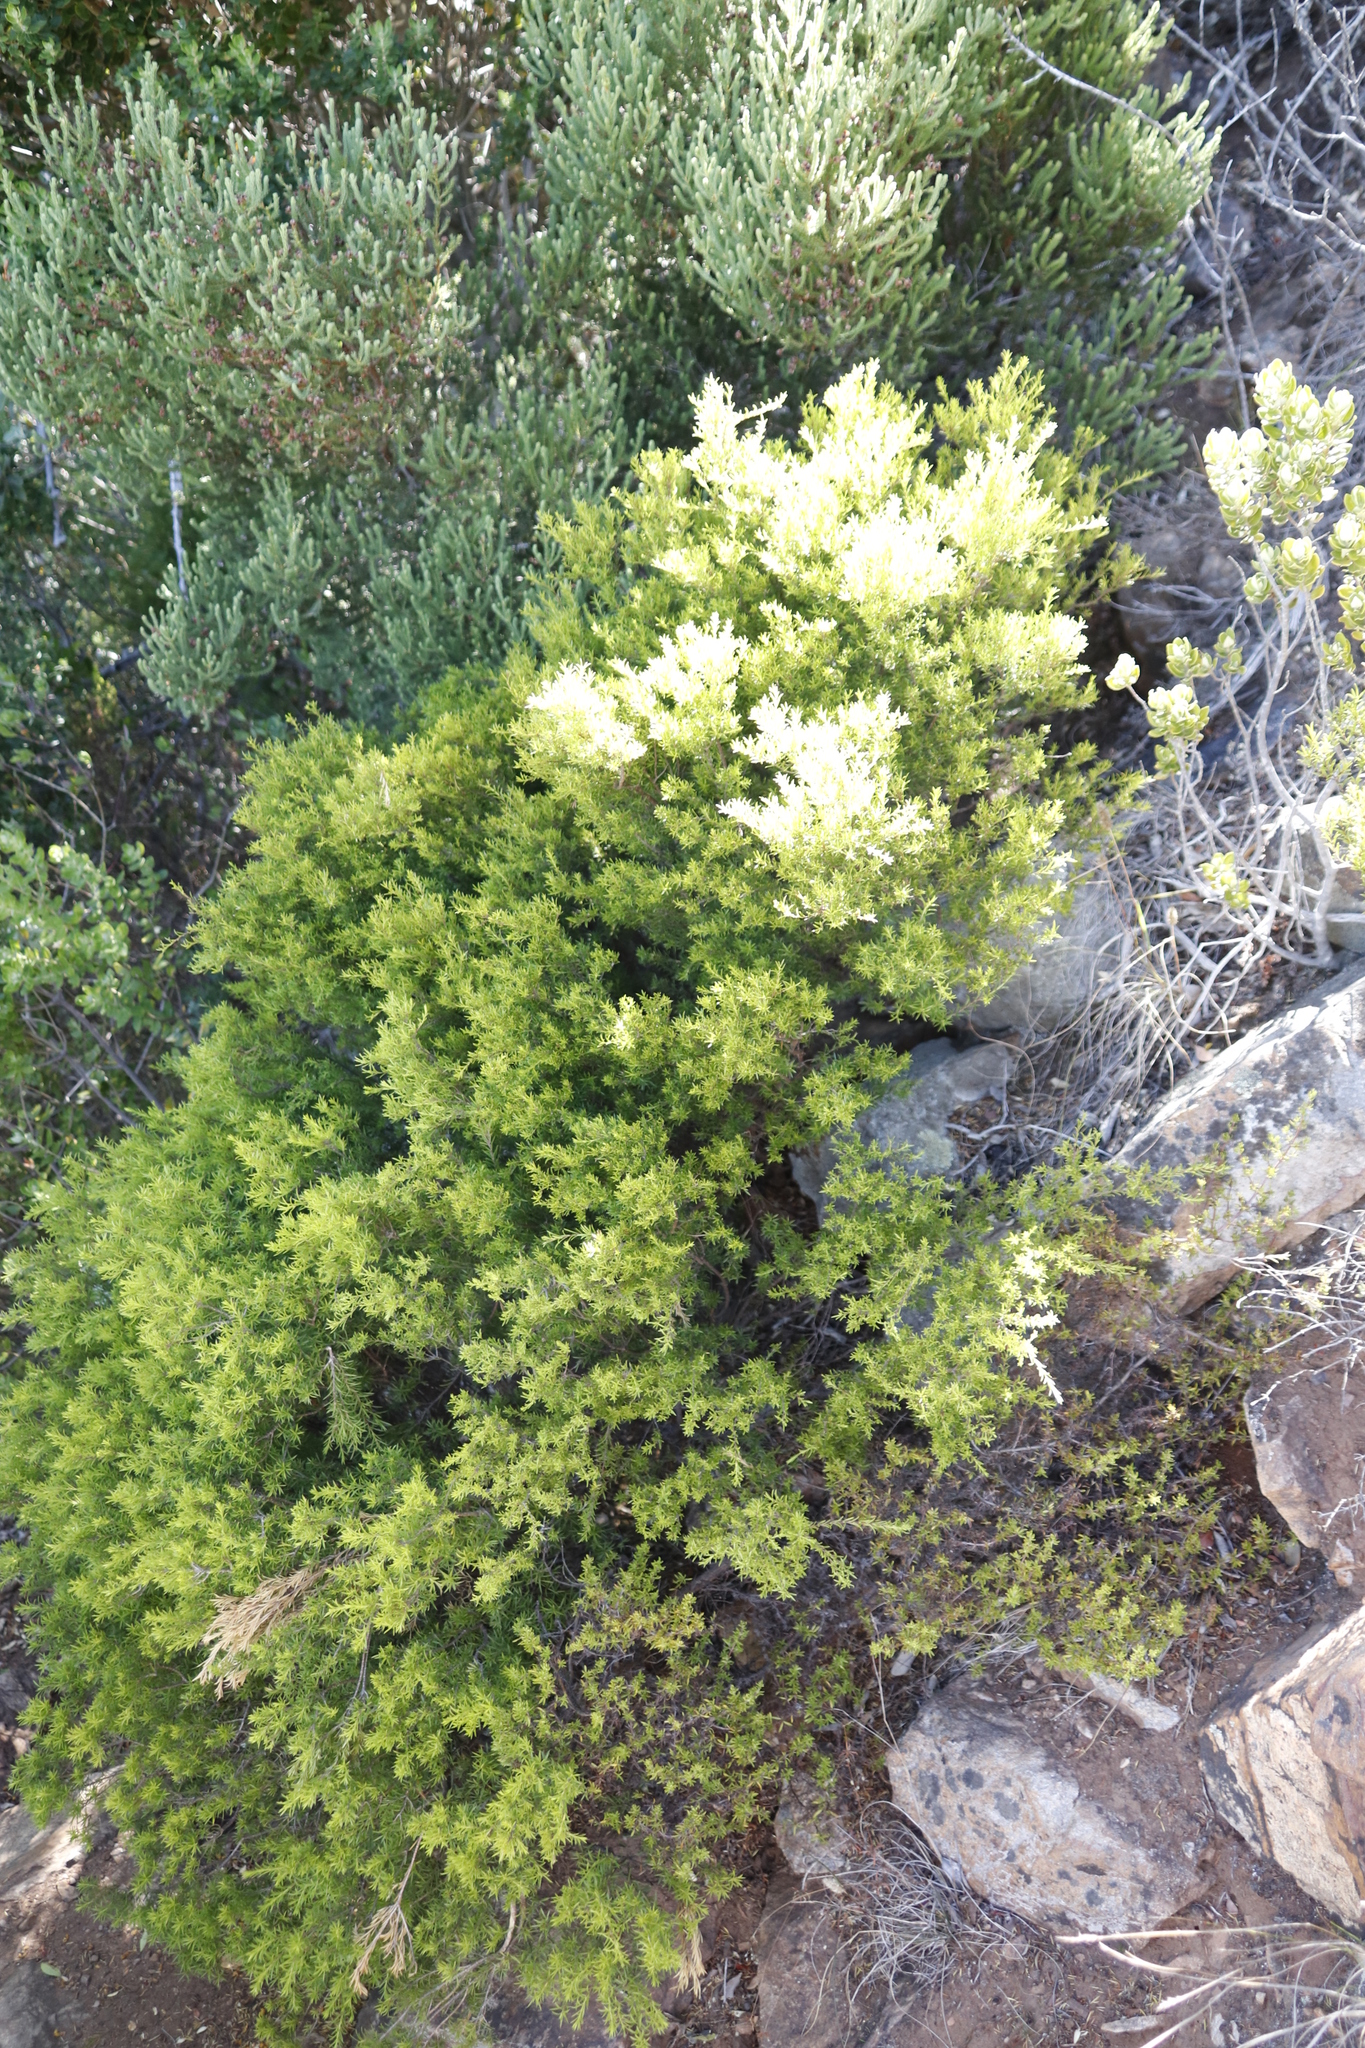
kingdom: Plantae
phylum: Tracheophyta
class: Magnoliopsida
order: Sapindales
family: Rutaceae
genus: Coleonema
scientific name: Coleonema album
